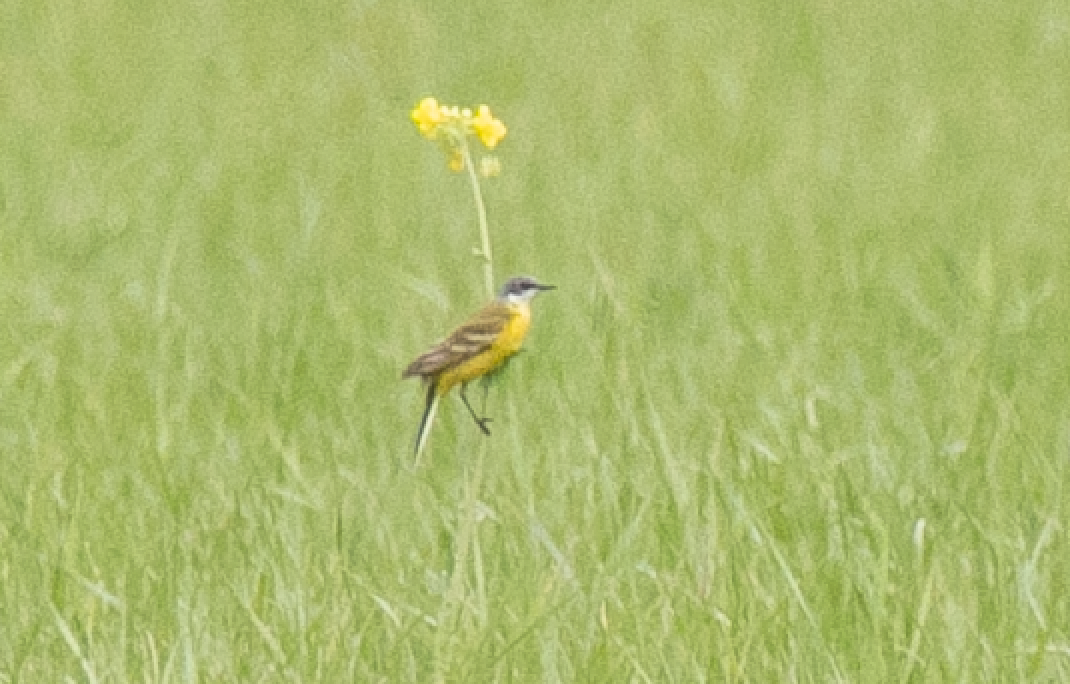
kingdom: Animalia
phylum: Chordata
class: Aves
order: Passeriformes
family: Motacillidae
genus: Motacilla
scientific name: Motacilla flava
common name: Western yellow wagtail
